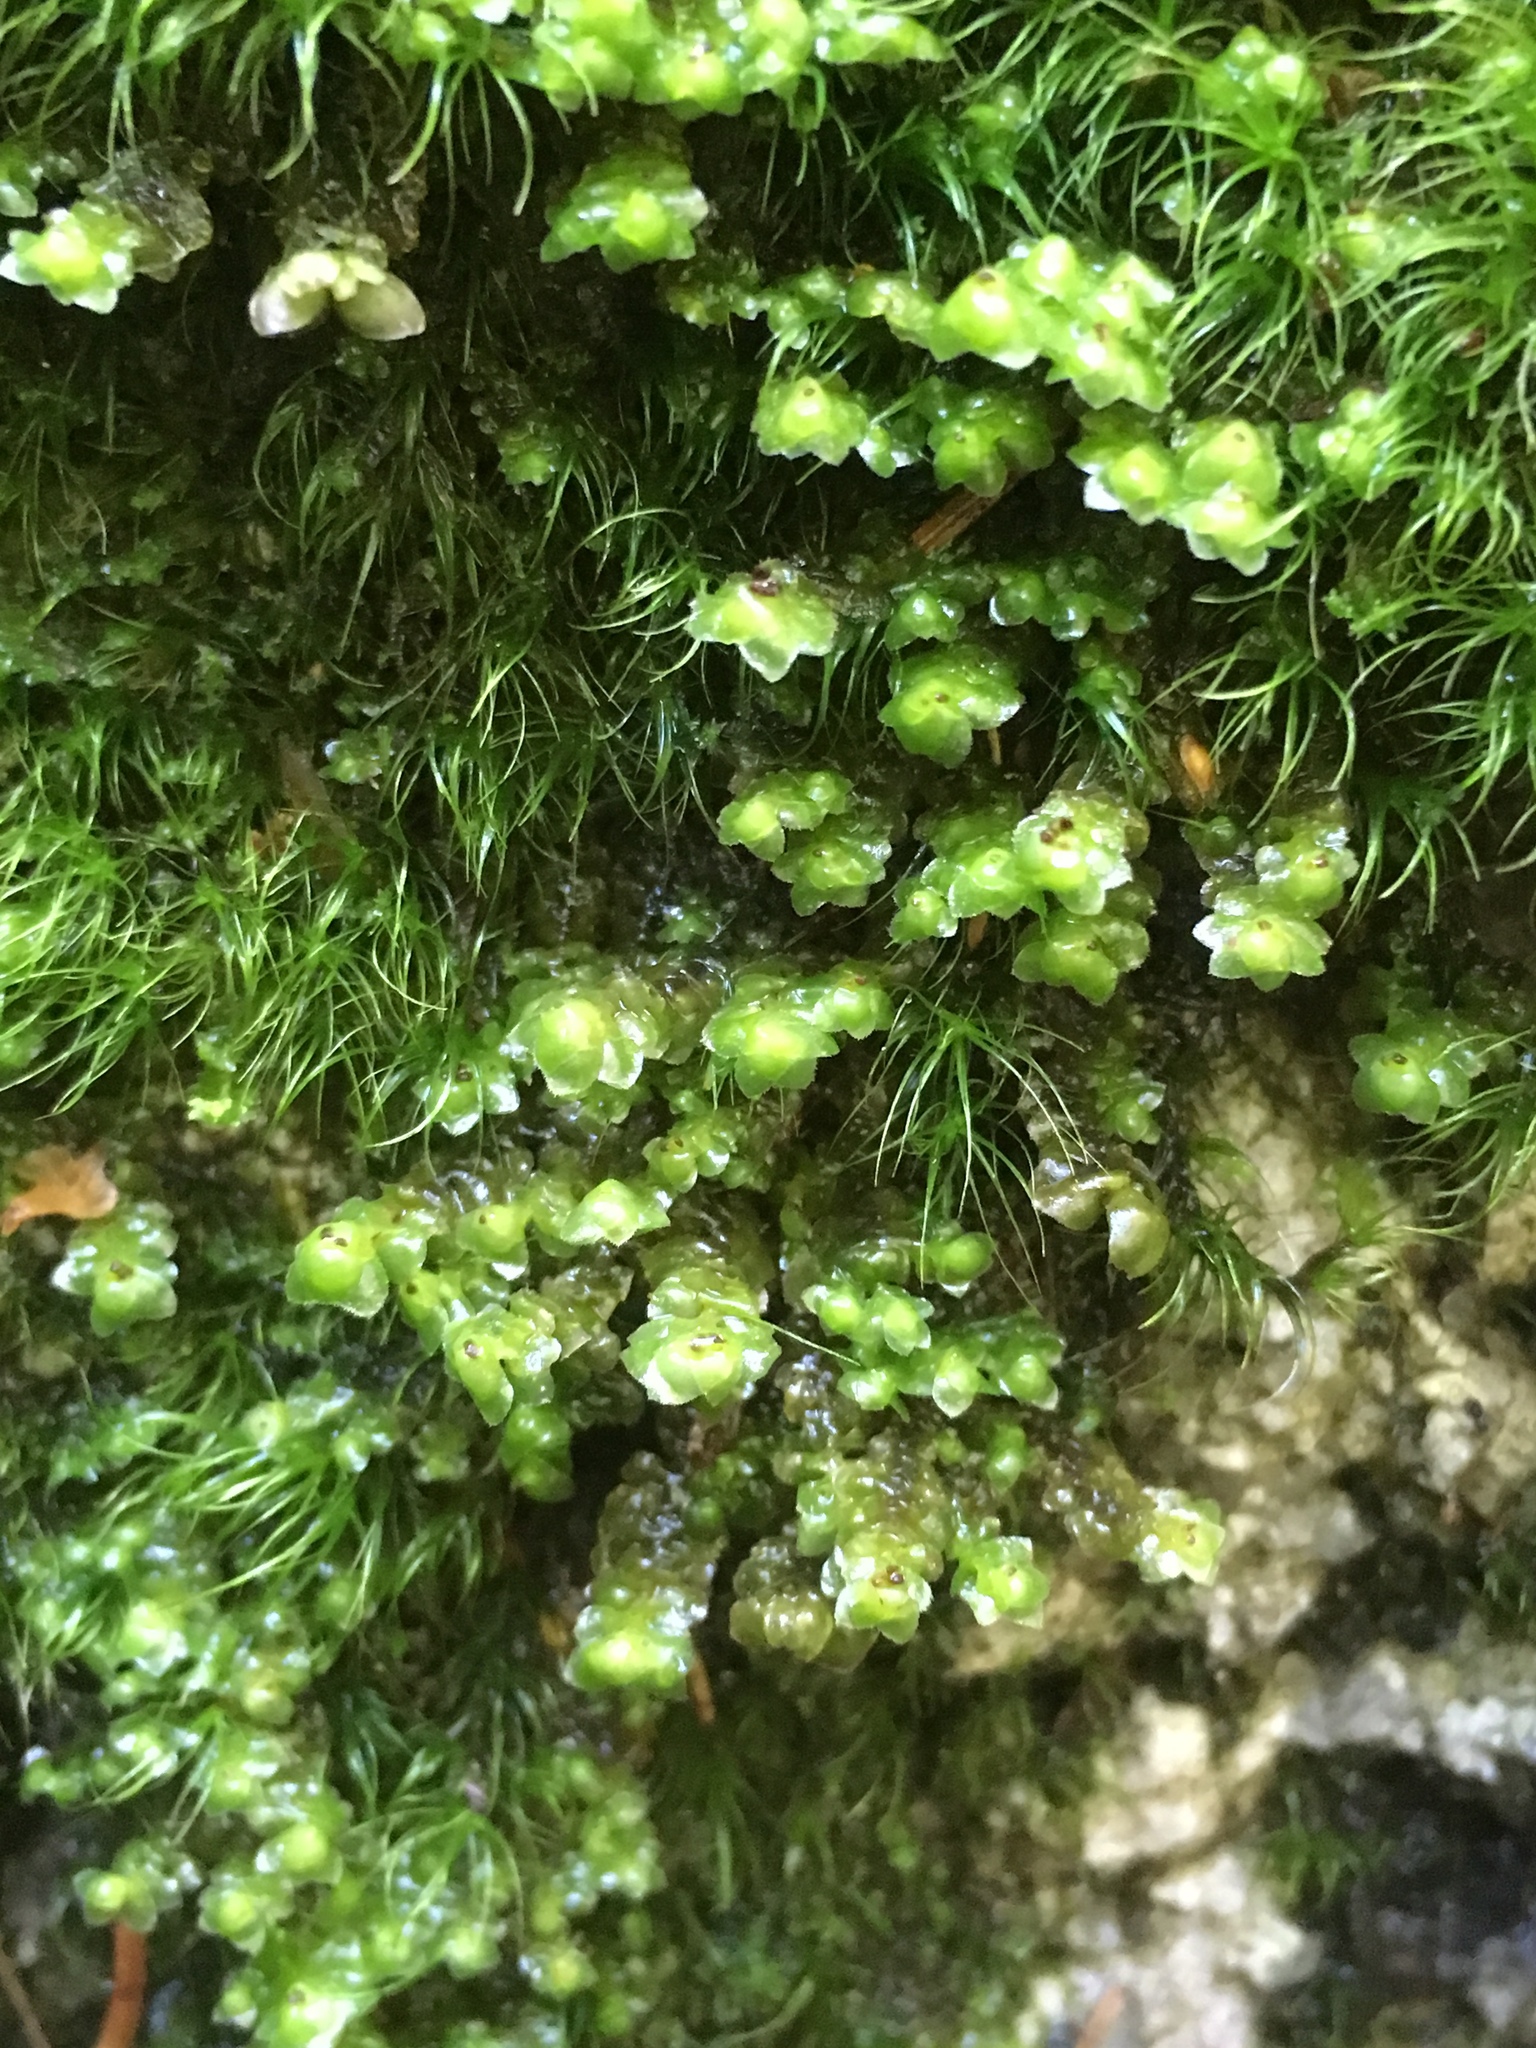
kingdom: Plantae
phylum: Marchantiophyta
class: Jungermanniopsida
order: Jungermanniales
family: Scapaniaceae
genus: Scapania
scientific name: Scapania nemorea
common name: Grove earwort
